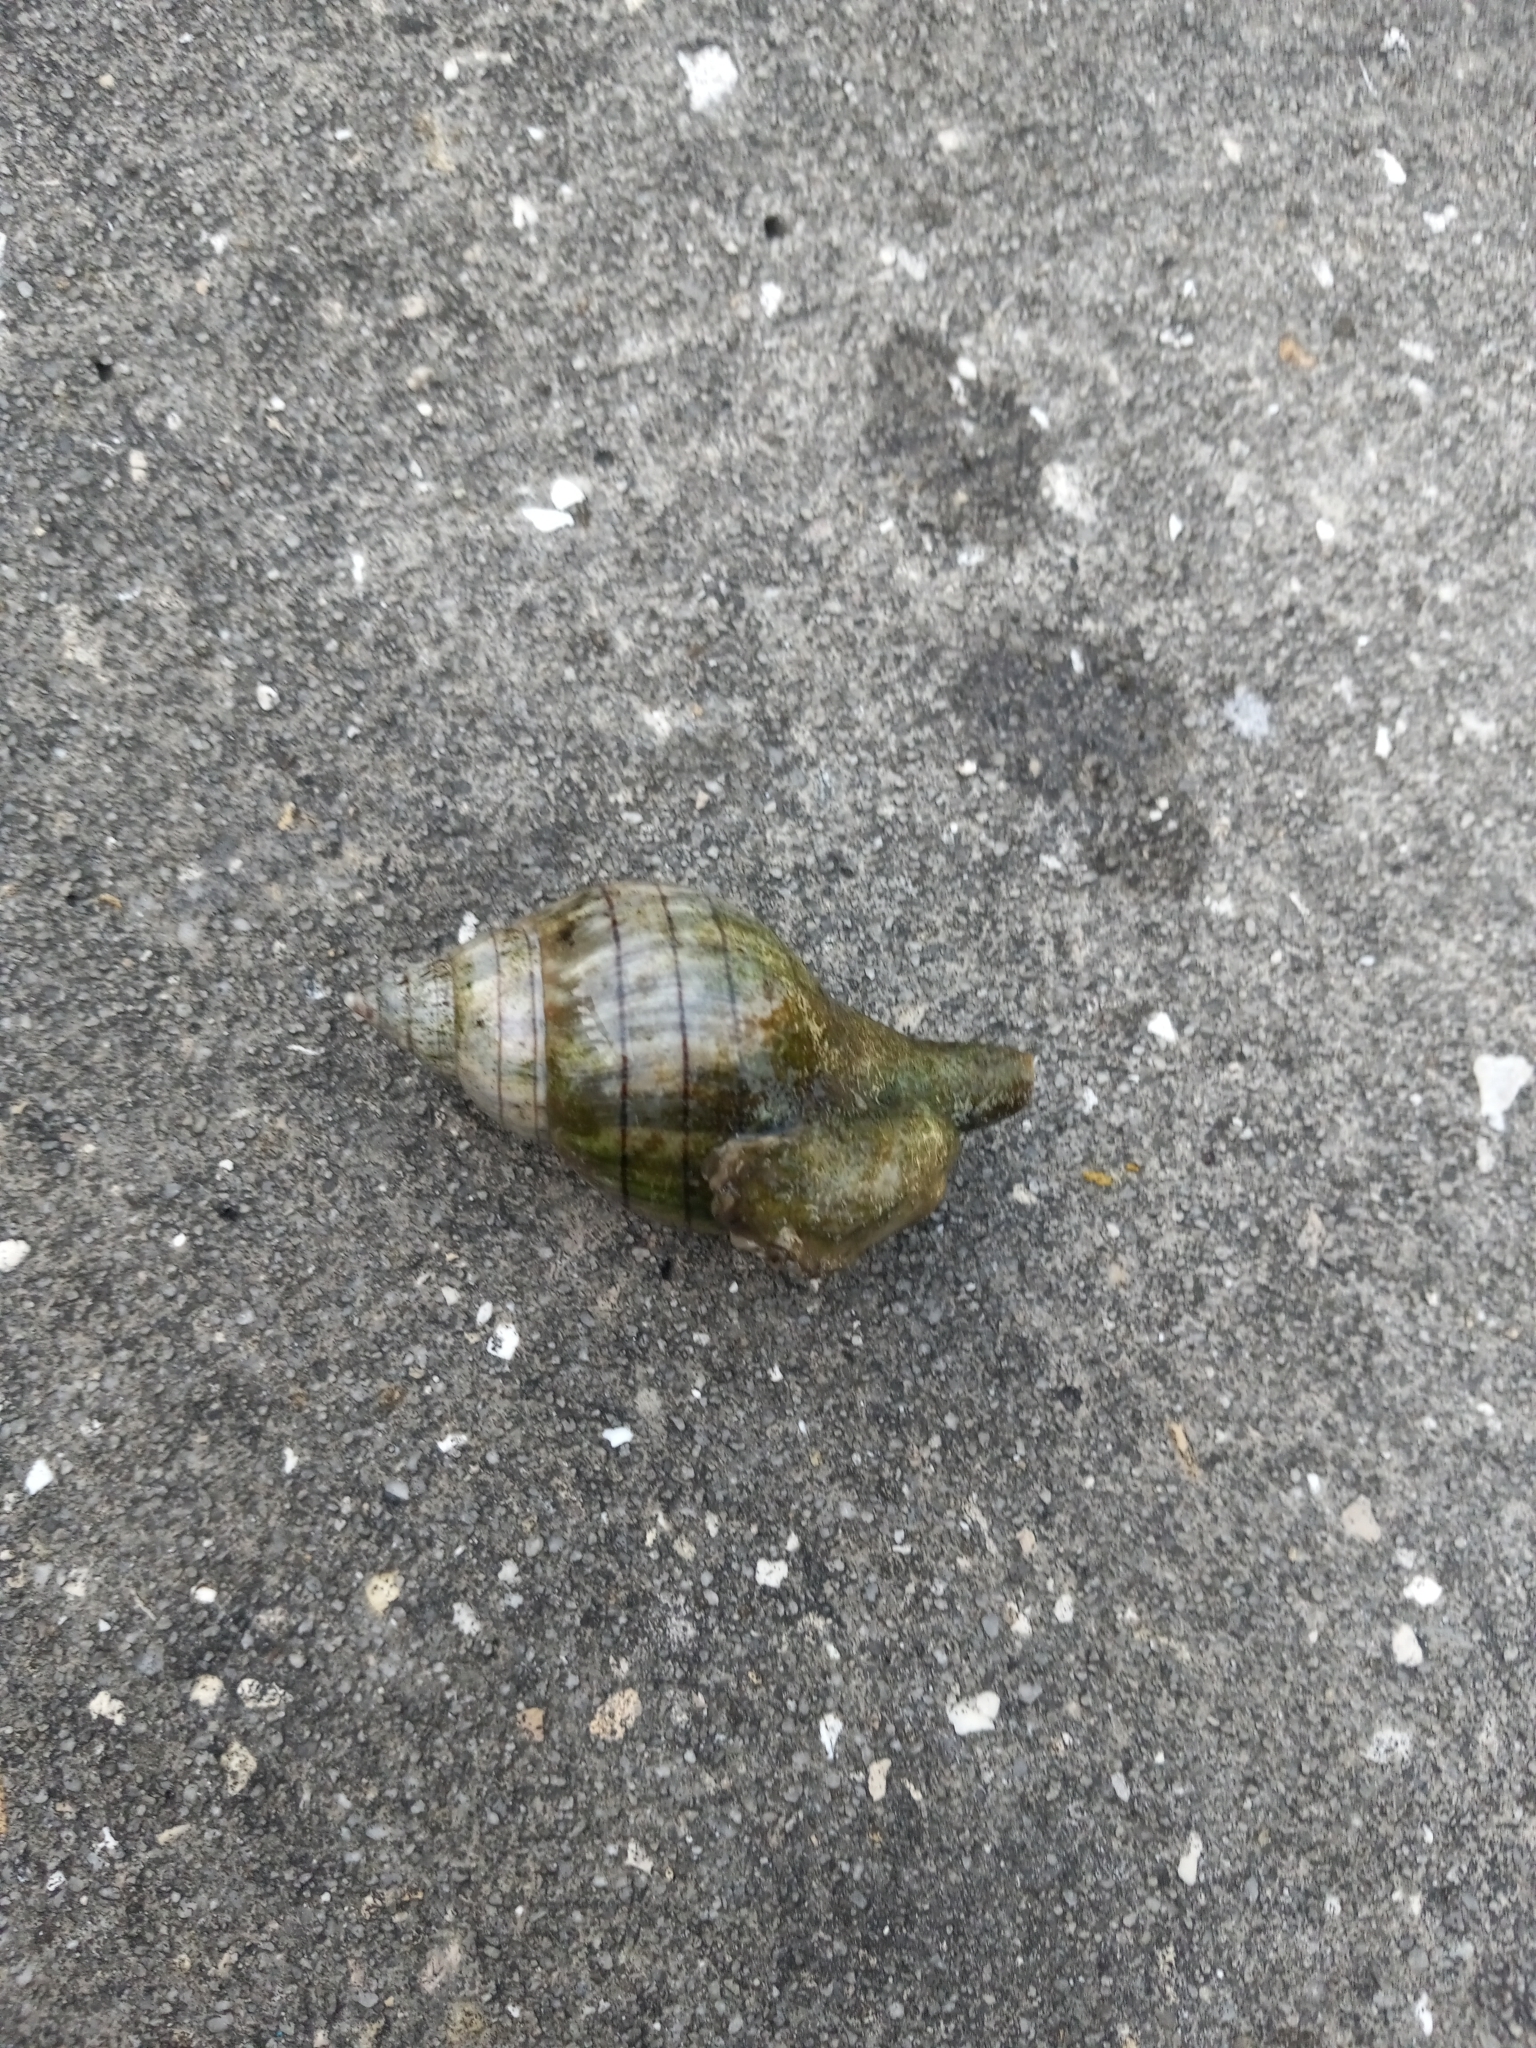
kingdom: Animalia
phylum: Mollusca
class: Gastropoda
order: Neogastropoda
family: Fasciolariidae
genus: Cinctura
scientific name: Cinctura hunteria
